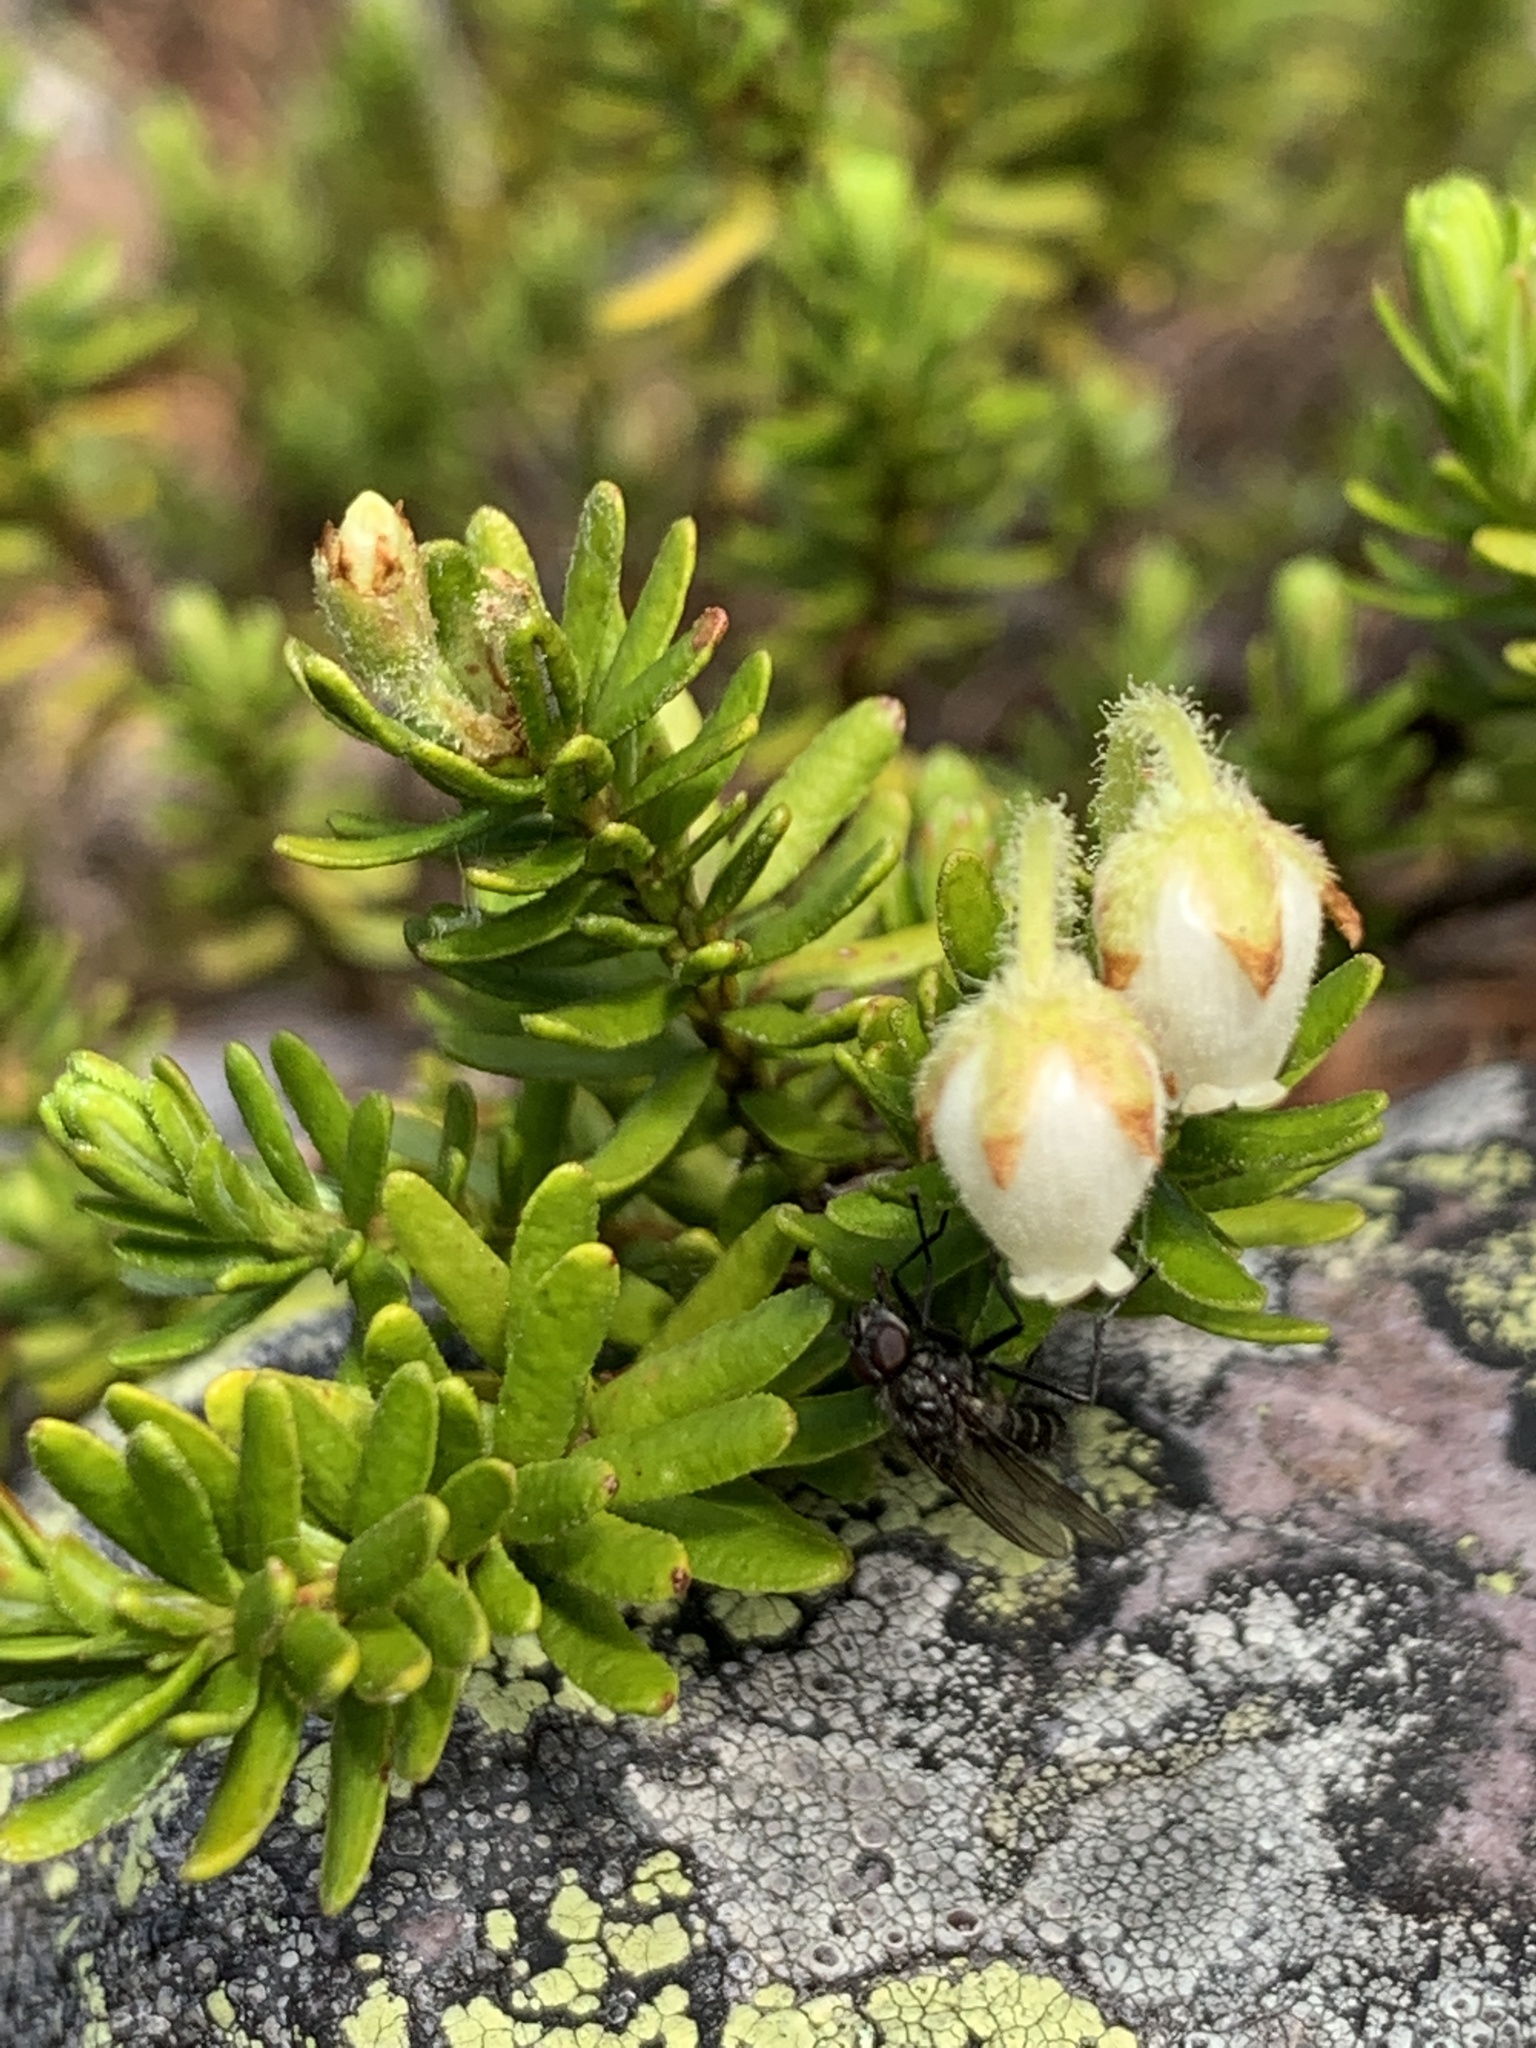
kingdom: Plantae
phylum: Tracheophyta
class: Magnoliopsida
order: Ericales
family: Ericaceae
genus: Phyllodoce
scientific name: Phyllodoce glanduliflora
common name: Cream mountain heather
